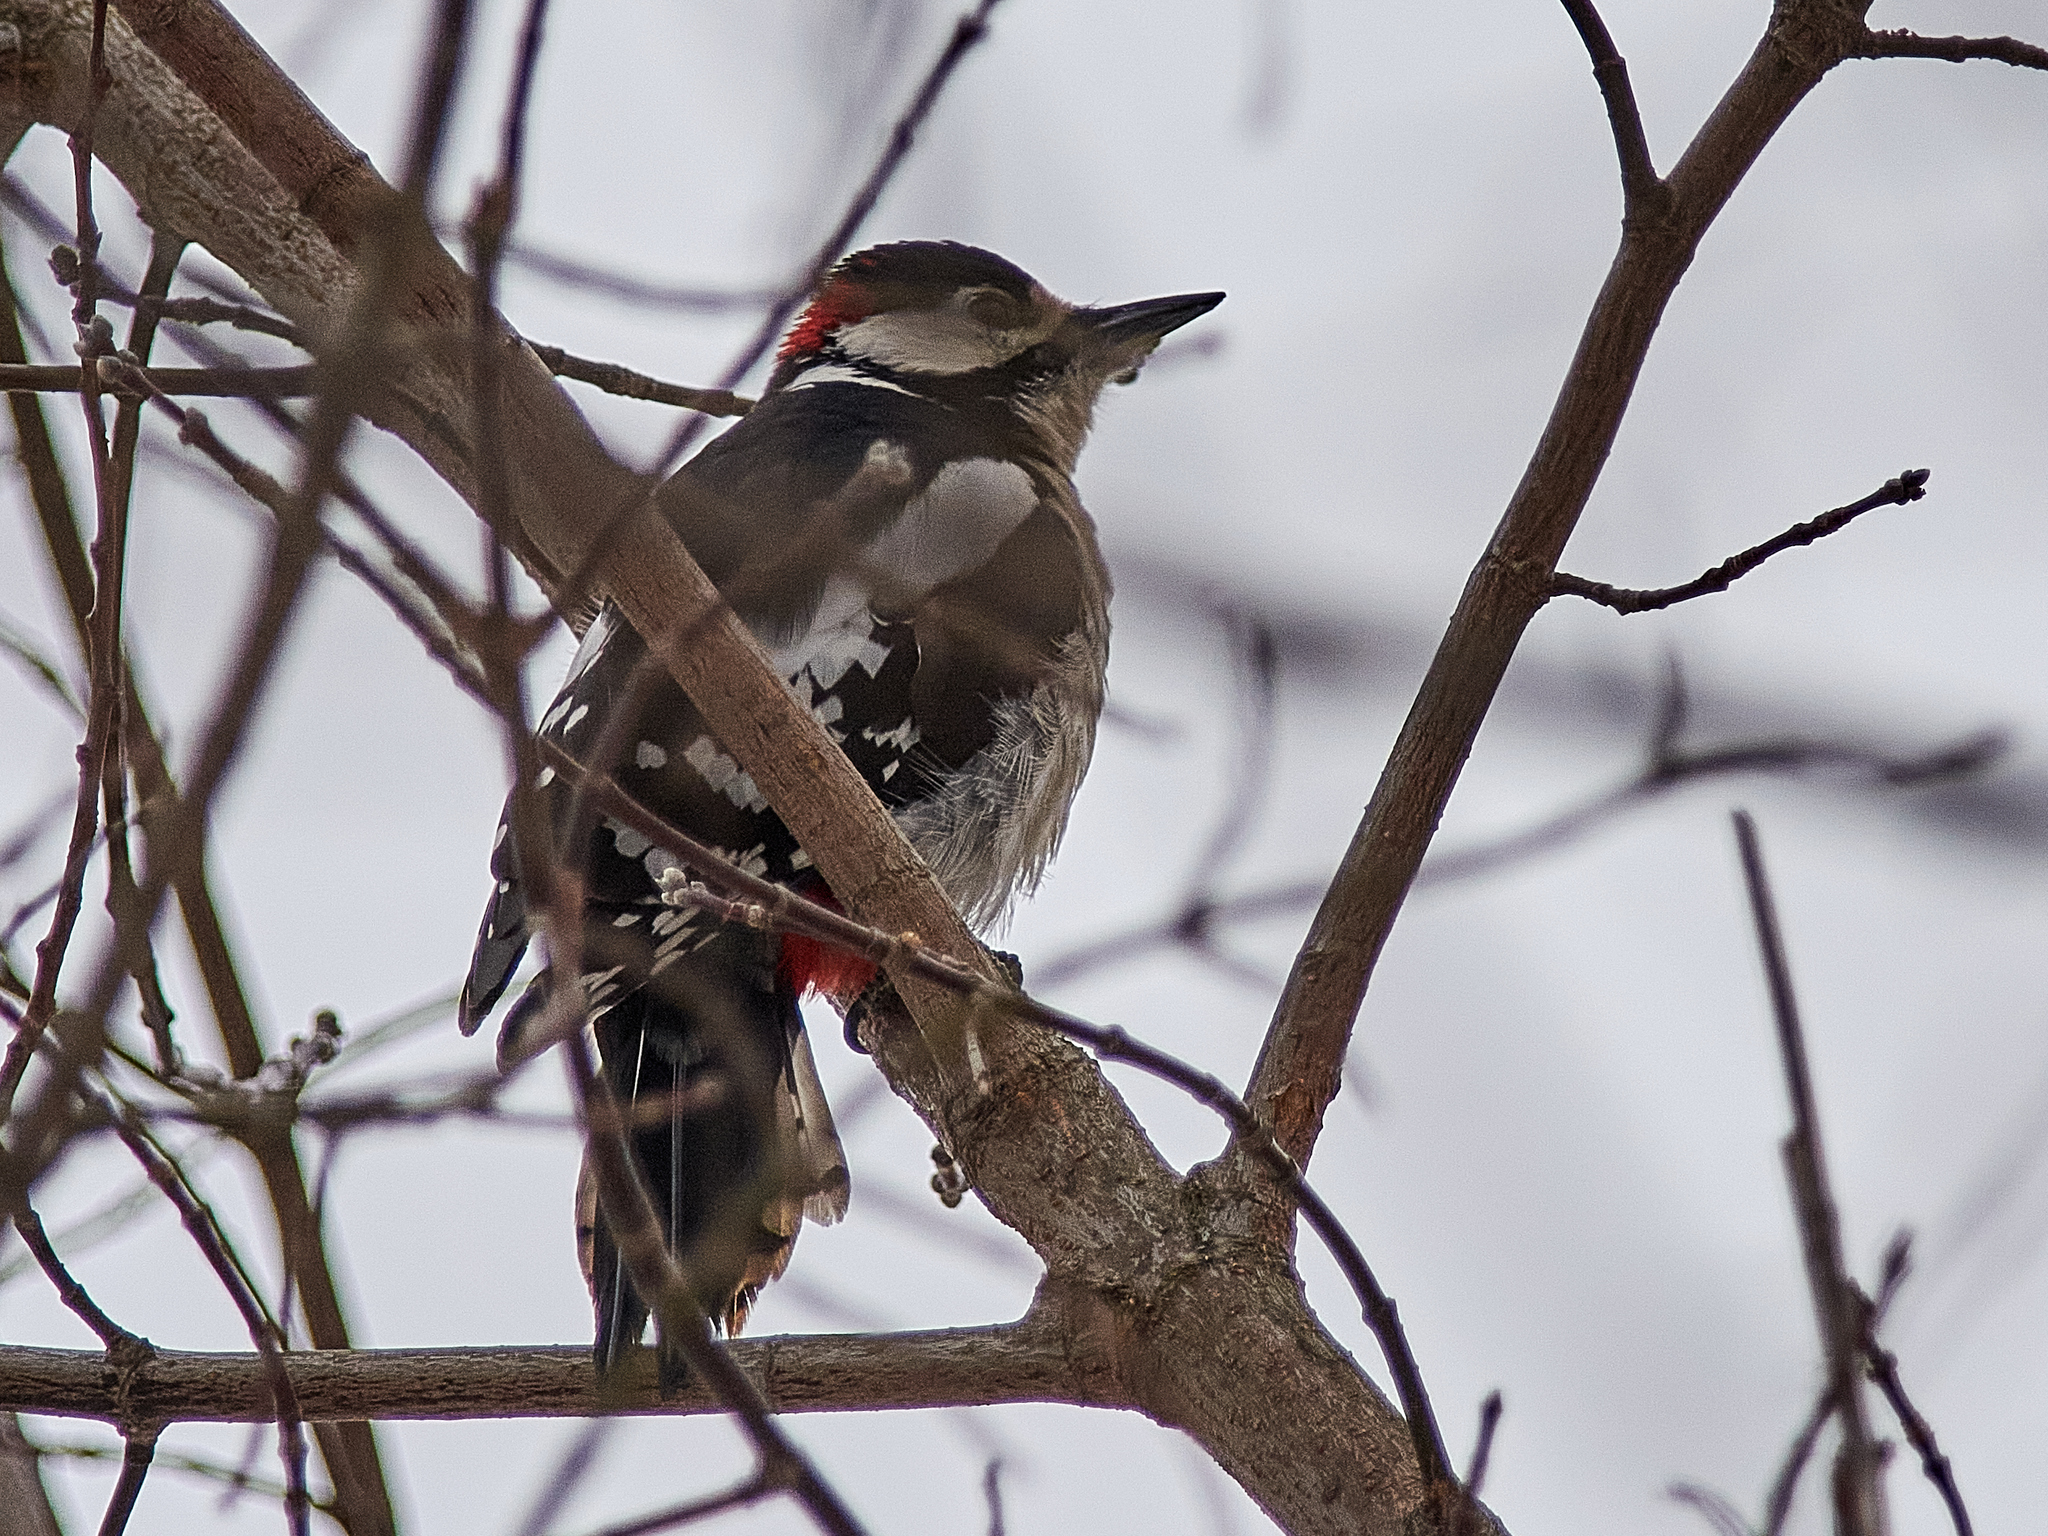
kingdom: Animalia
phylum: Chordata
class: Aves
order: Piciformes
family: Picidae
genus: Dendrocopos
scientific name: Dendrocopos major
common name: Great spotted woodpecker
